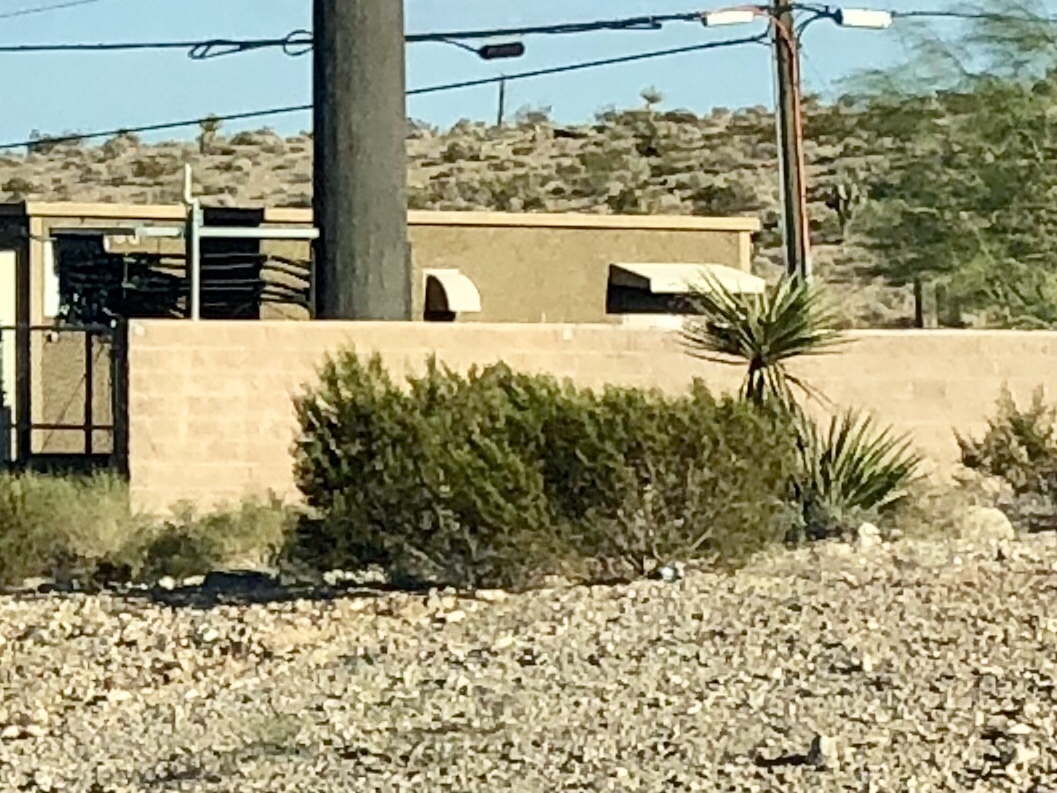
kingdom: Plantae
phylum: Tracheophyta
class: Magnoliopsida
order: Zygophyllales
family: Zygophyllaceae
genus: Larrea
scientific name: Larrea tridentata
